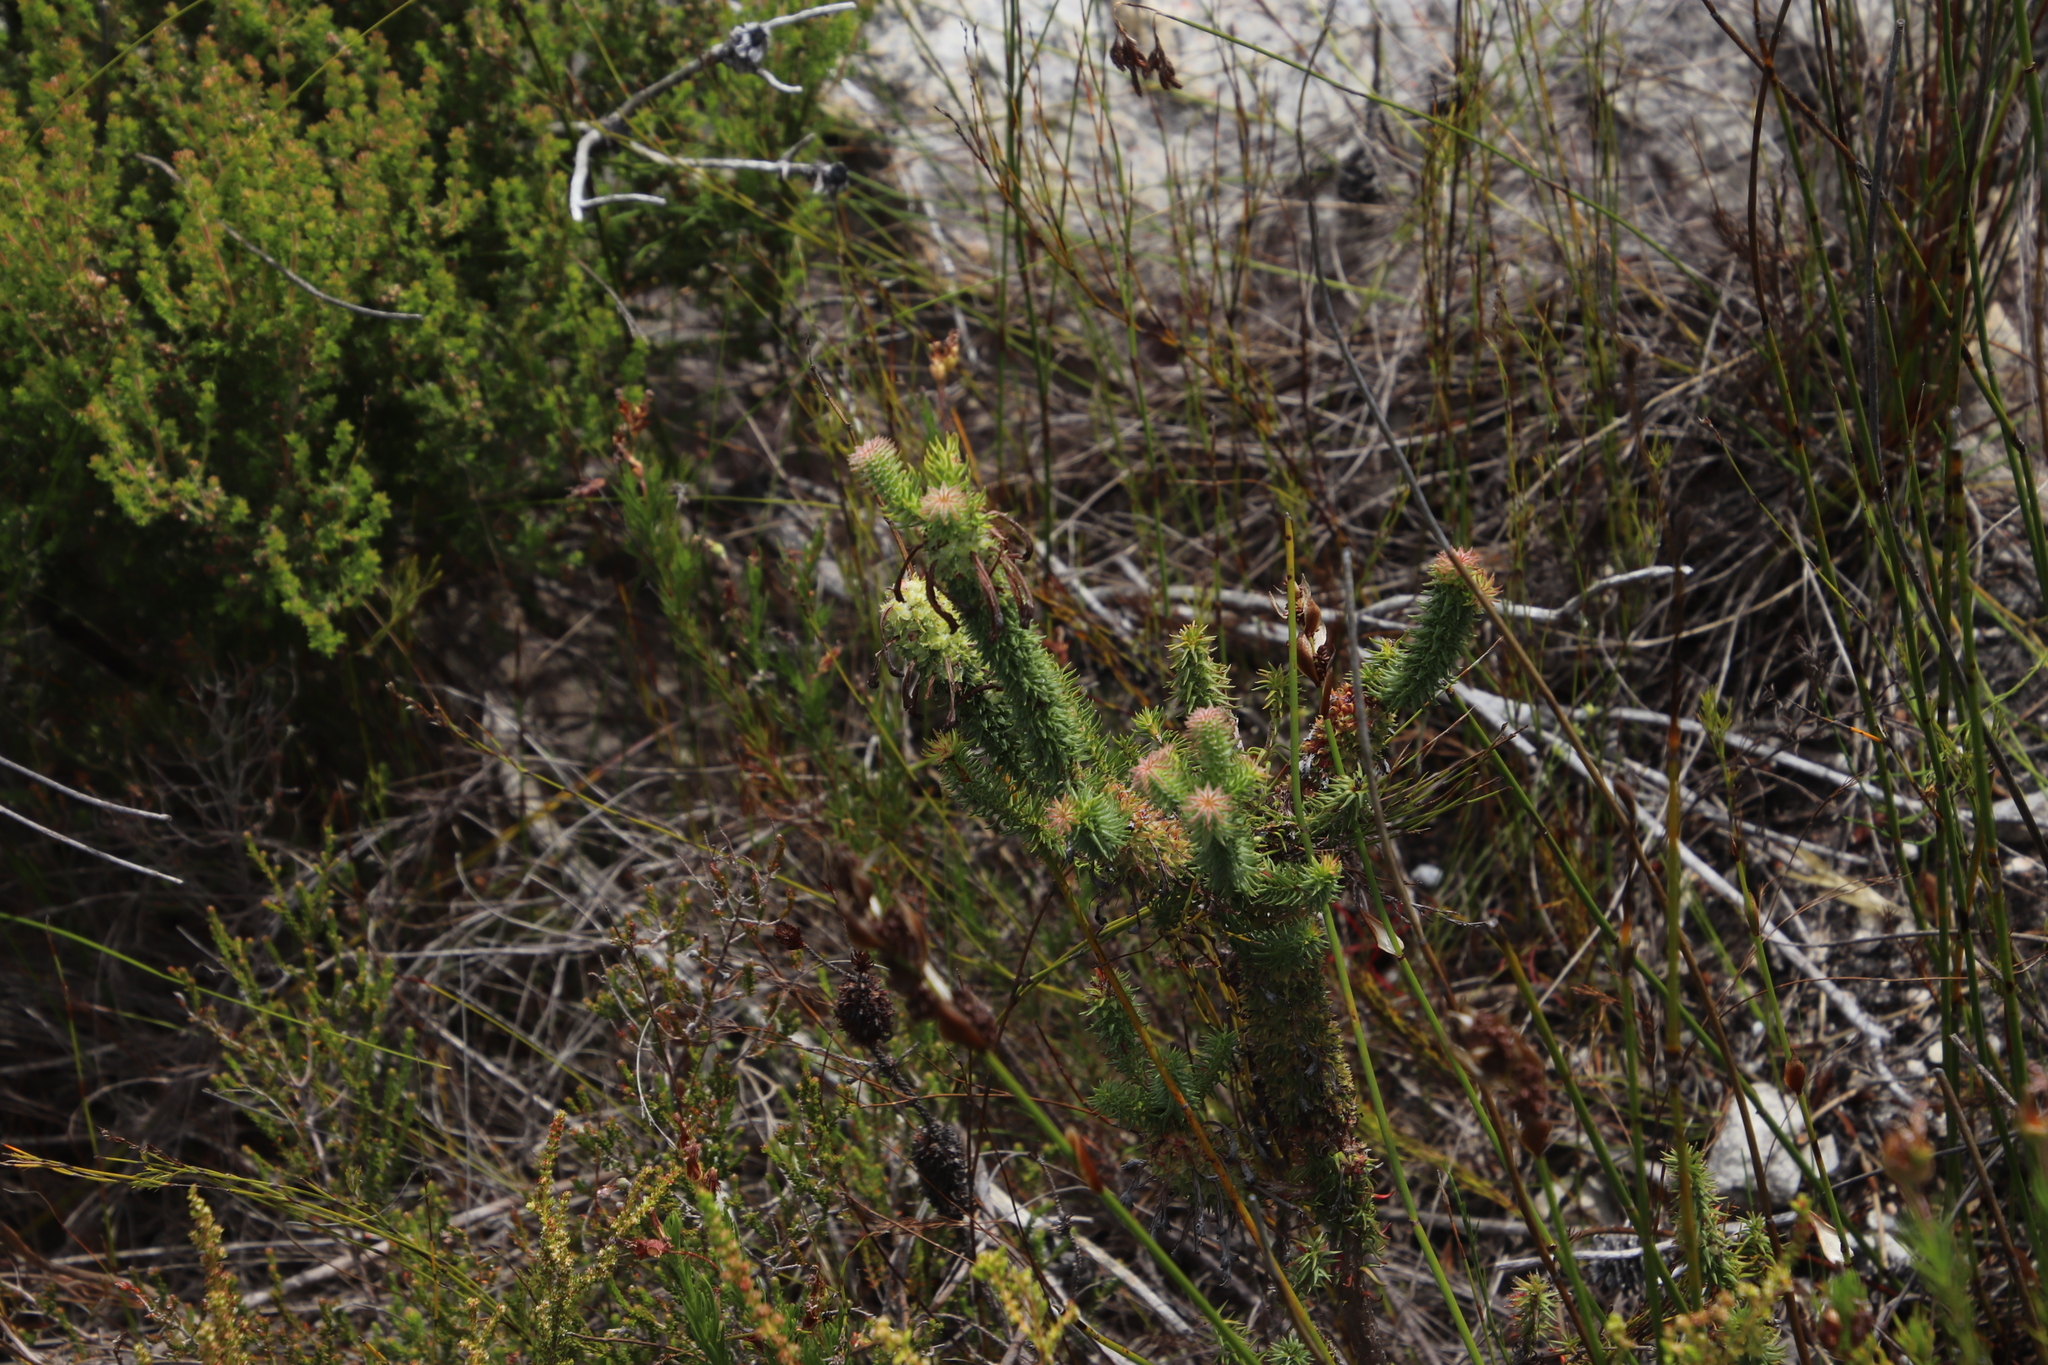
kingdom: Plantae
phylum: Tracheophyta
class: Magnoliopsida
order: Ericales
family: Ericaceae
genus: Erica
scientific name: Erica sessiliflora
